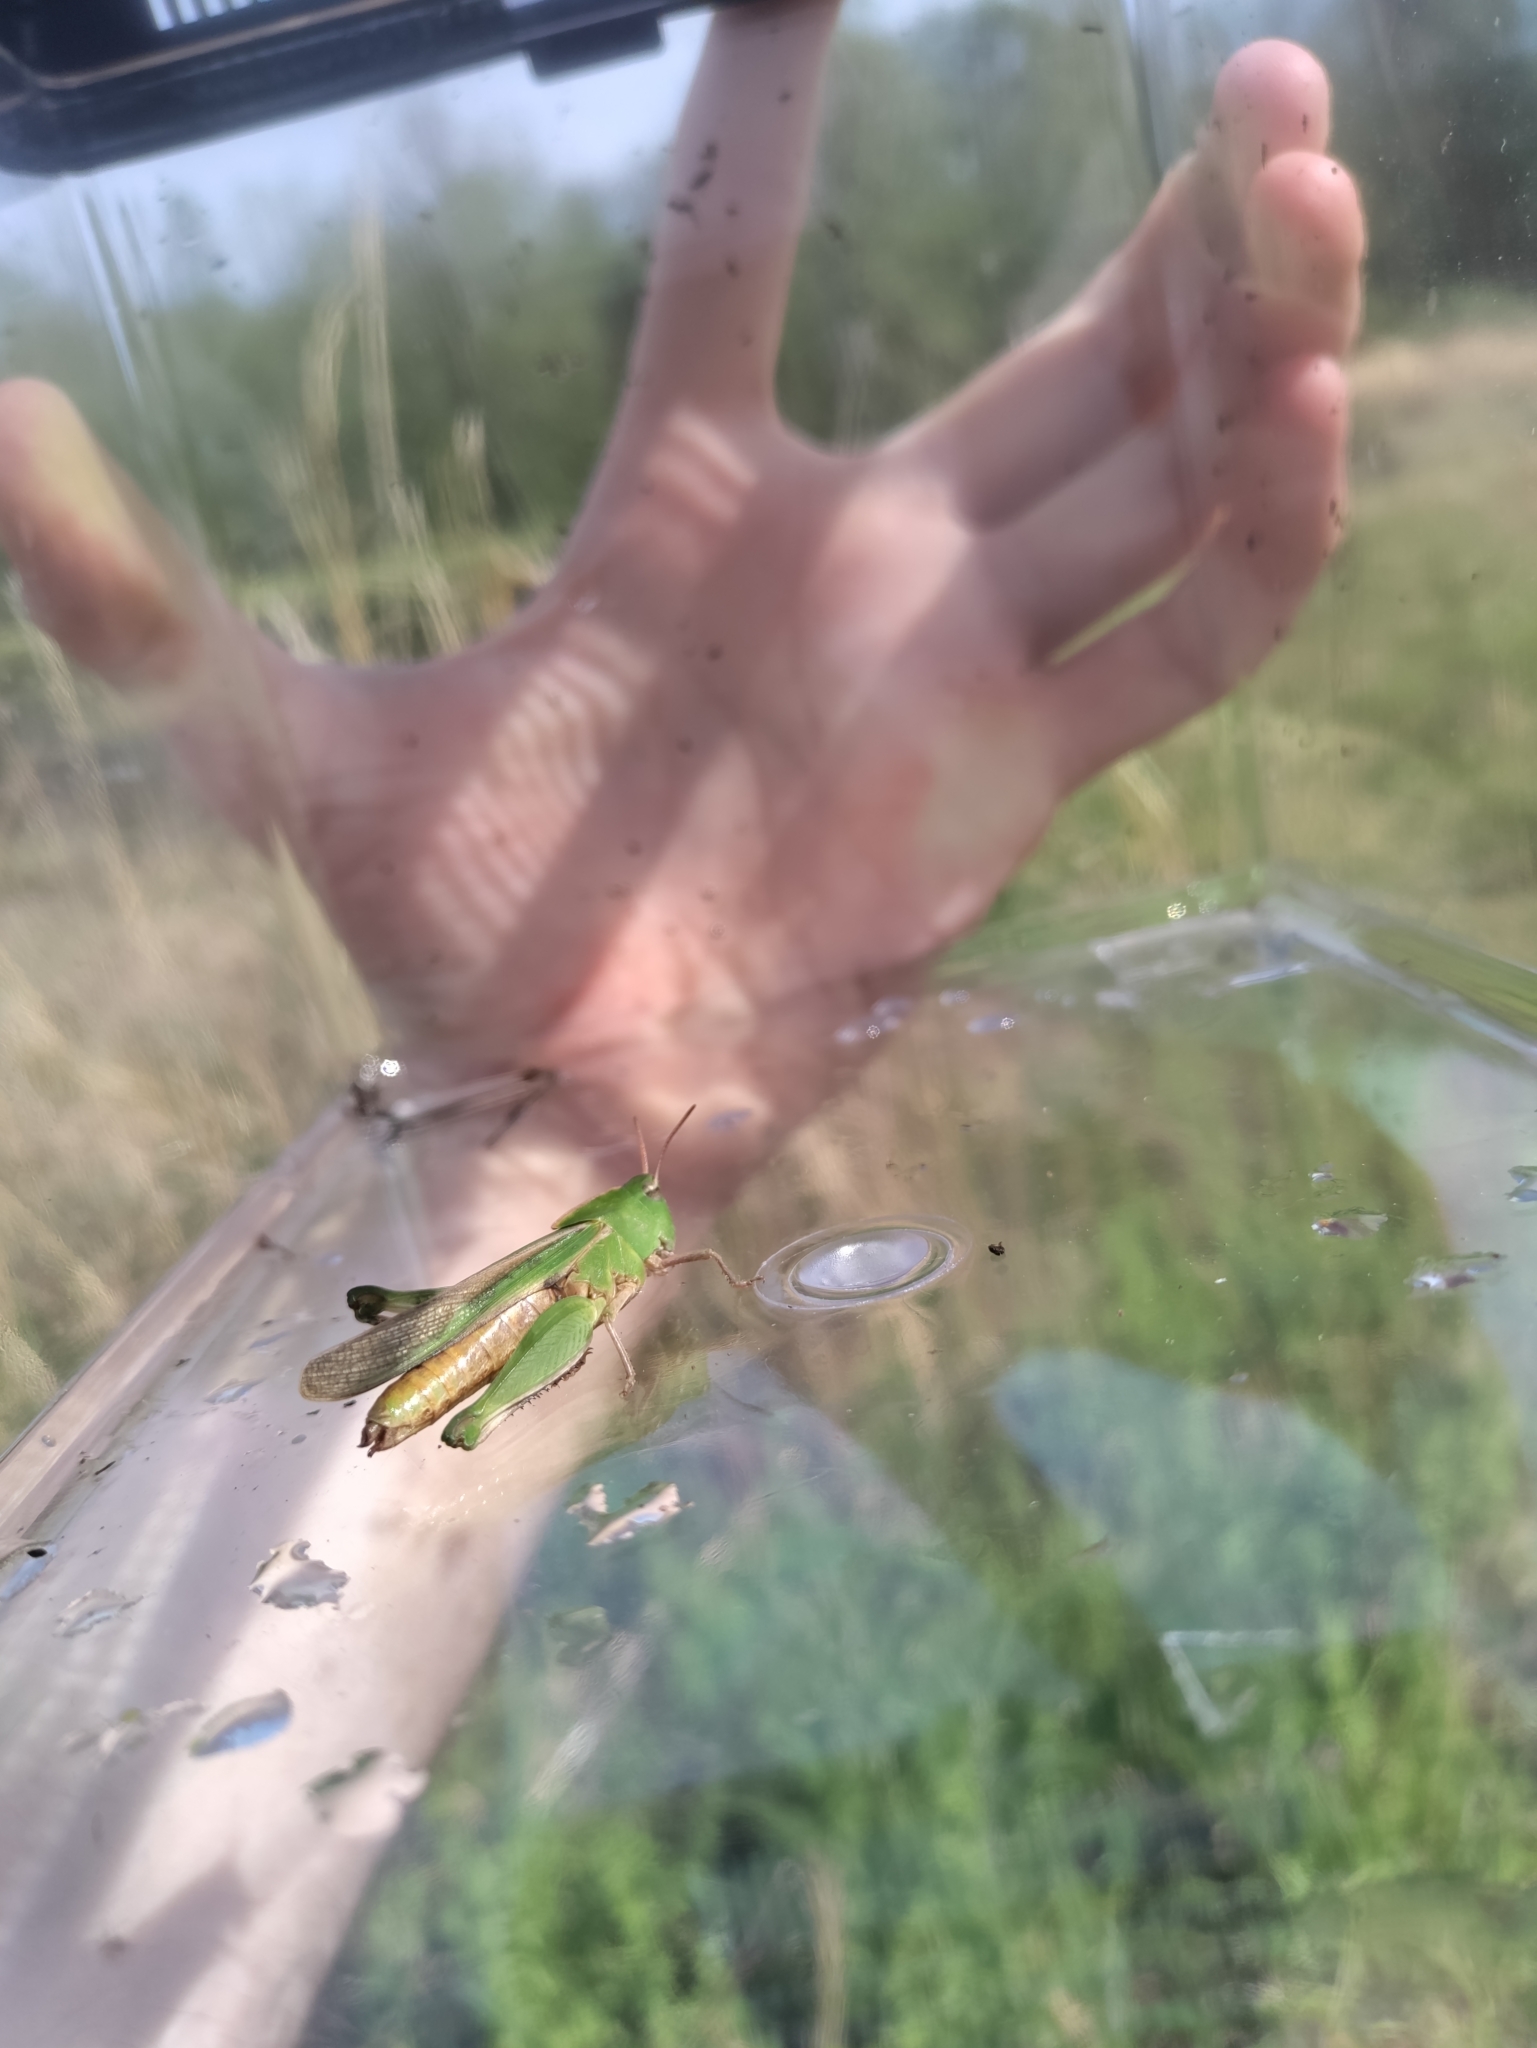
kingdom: Animalia
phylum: Arthropoda
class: Insecta
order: Orthoptera
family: Acrididae
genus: Chortophaga
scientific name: Chortophaga viridifasciata
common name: Green-striped grasshopper
